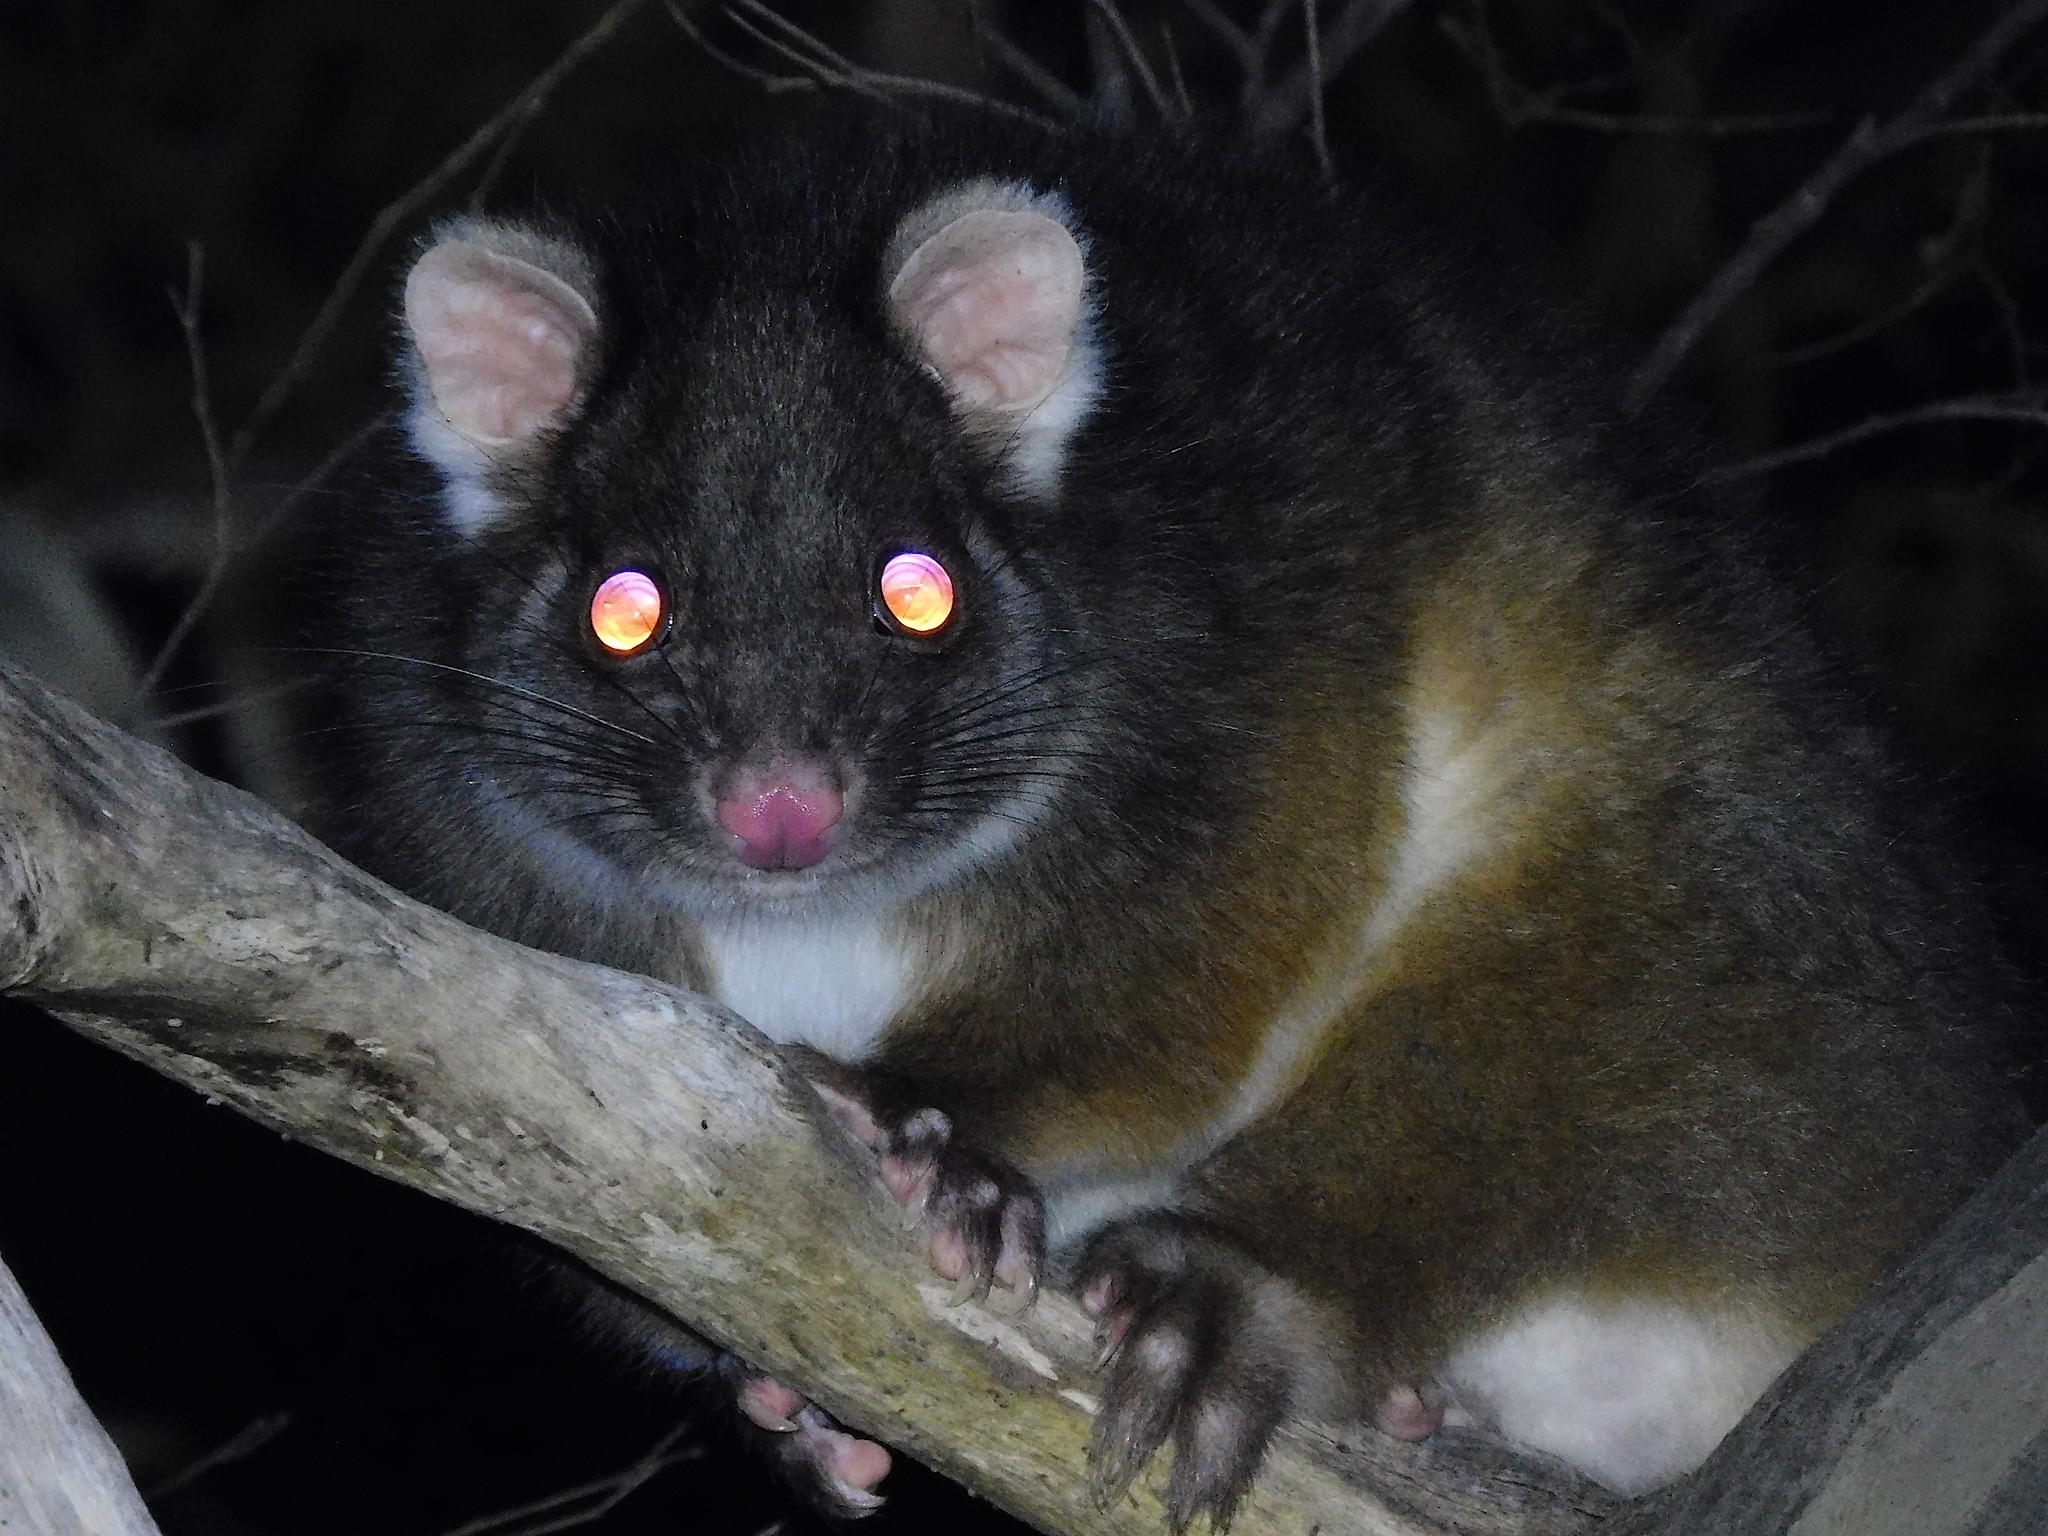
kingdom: Animalia
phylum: Chordata
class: Mammalia
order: Diprotodontia
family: Pseudocheiridae
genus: Pseudocheirus
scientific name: Pseudocheirus peregrinus
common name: Common ringtail possum
